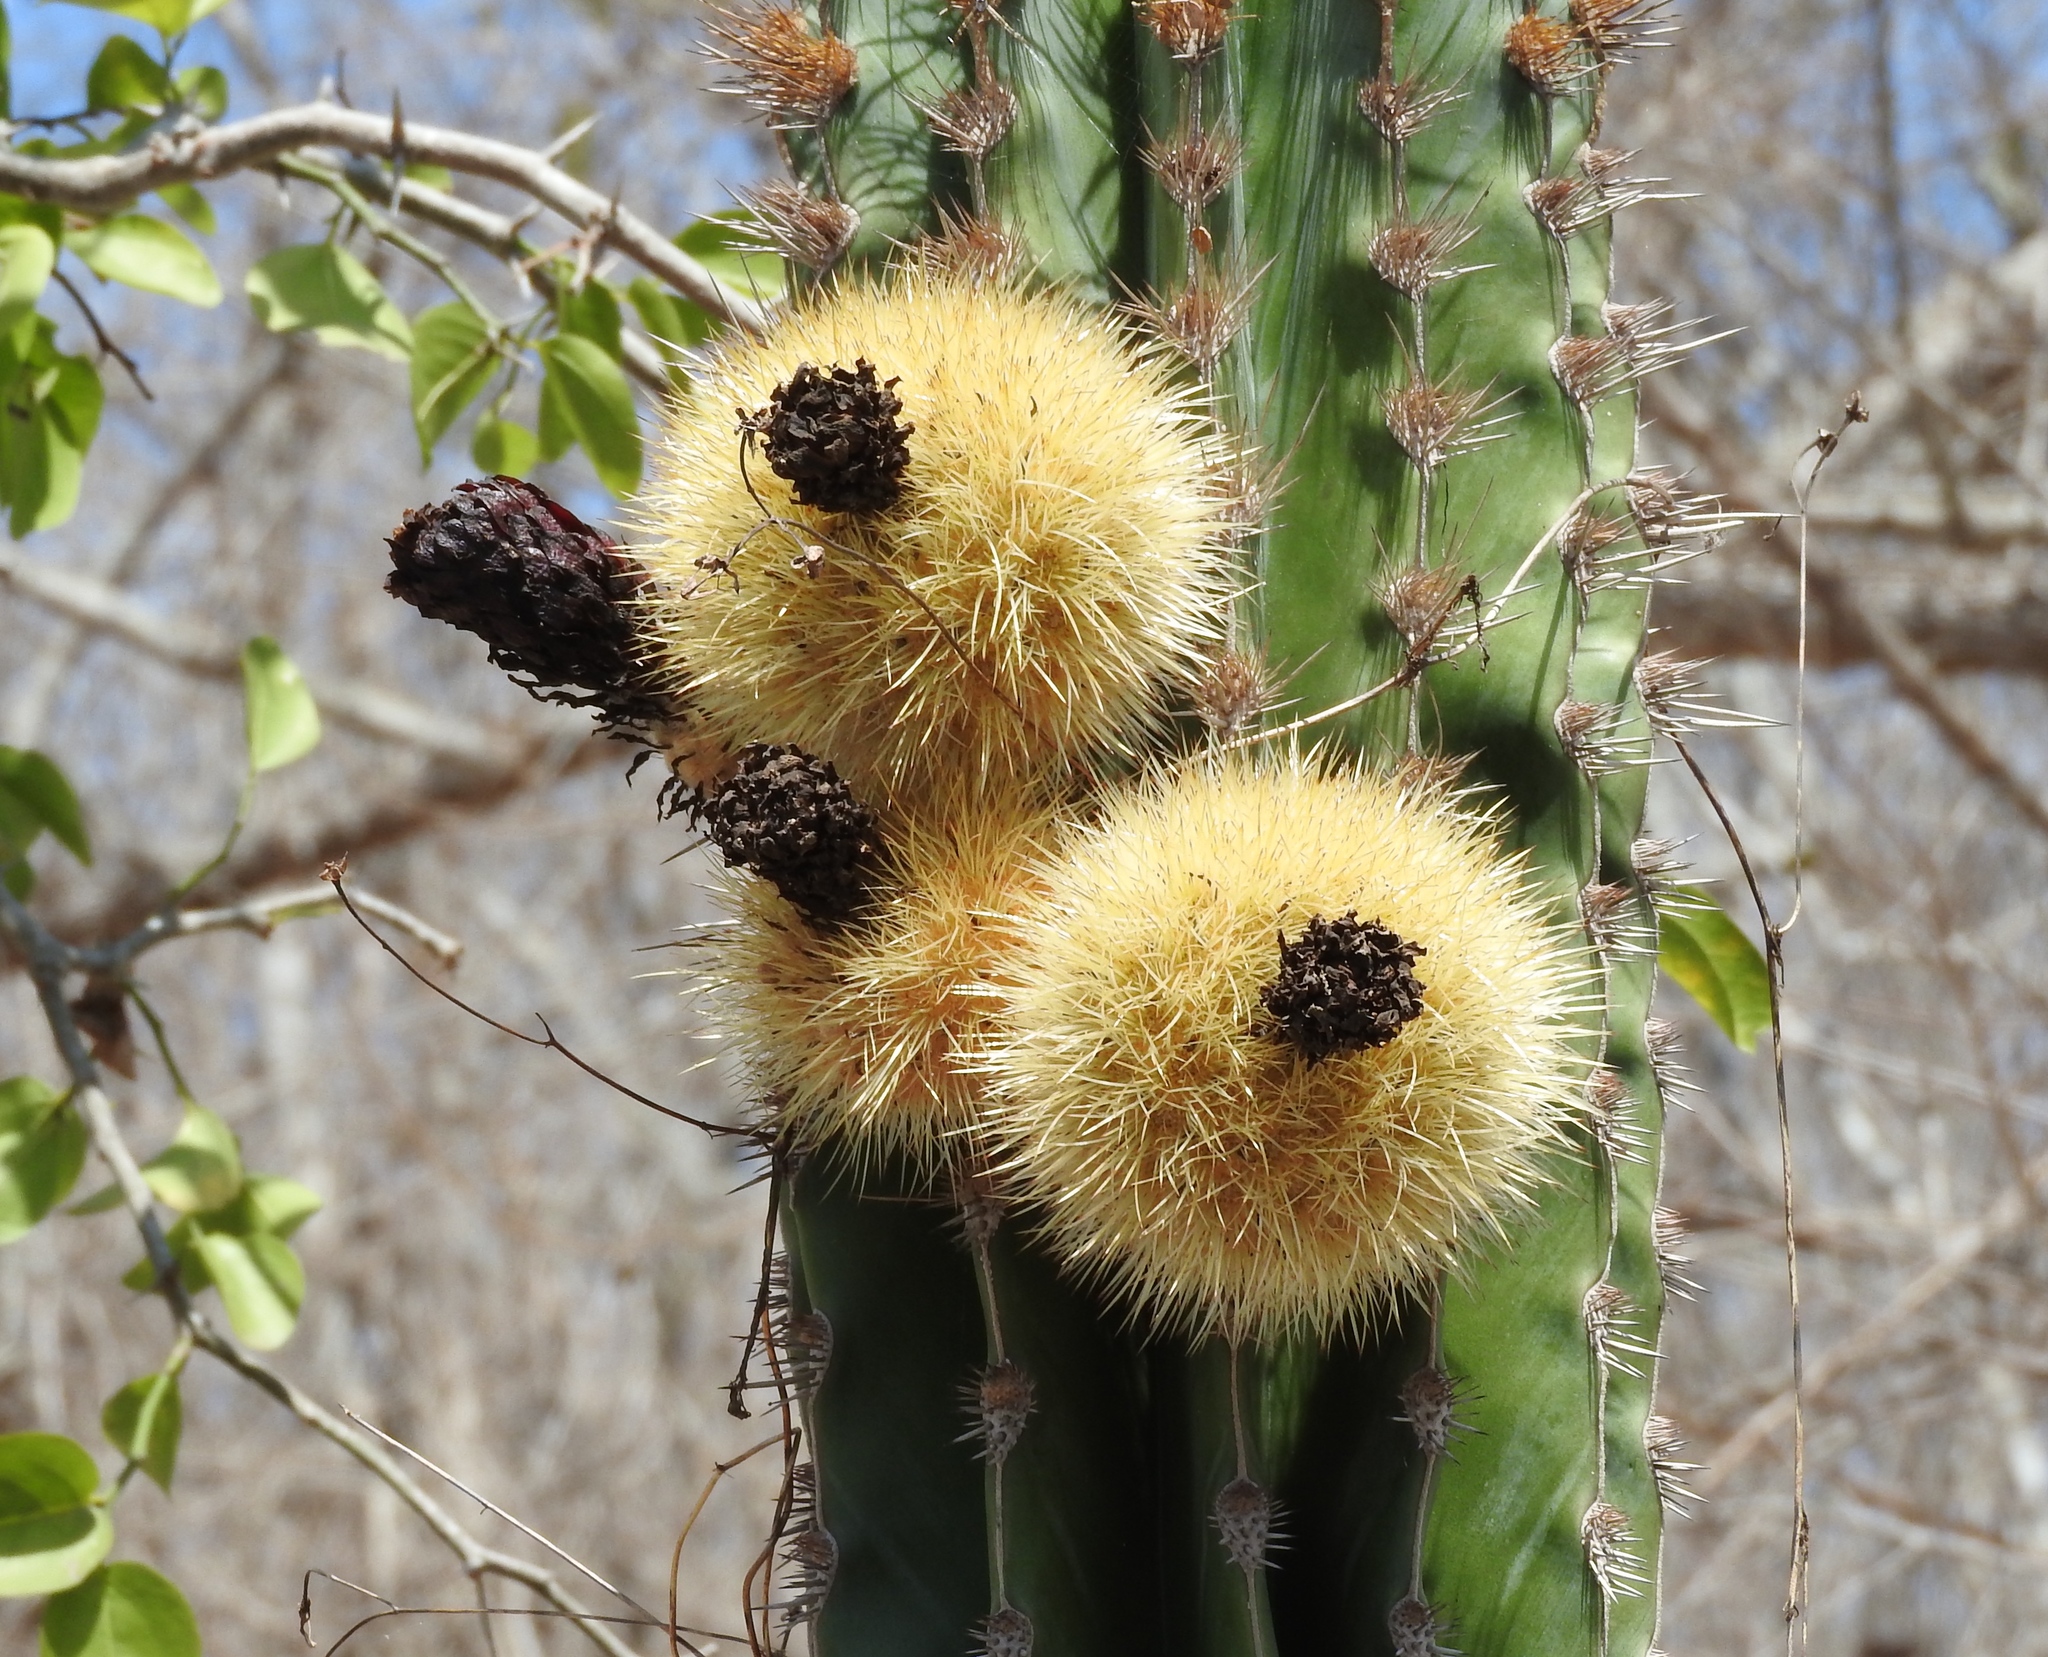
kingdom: Plantae
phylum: Tracheophyta
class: Magnoliopsida
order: Caryophyllales
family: Cactaceae
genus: Pachycereus
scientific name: Pachycereus pecten-aboriginum
